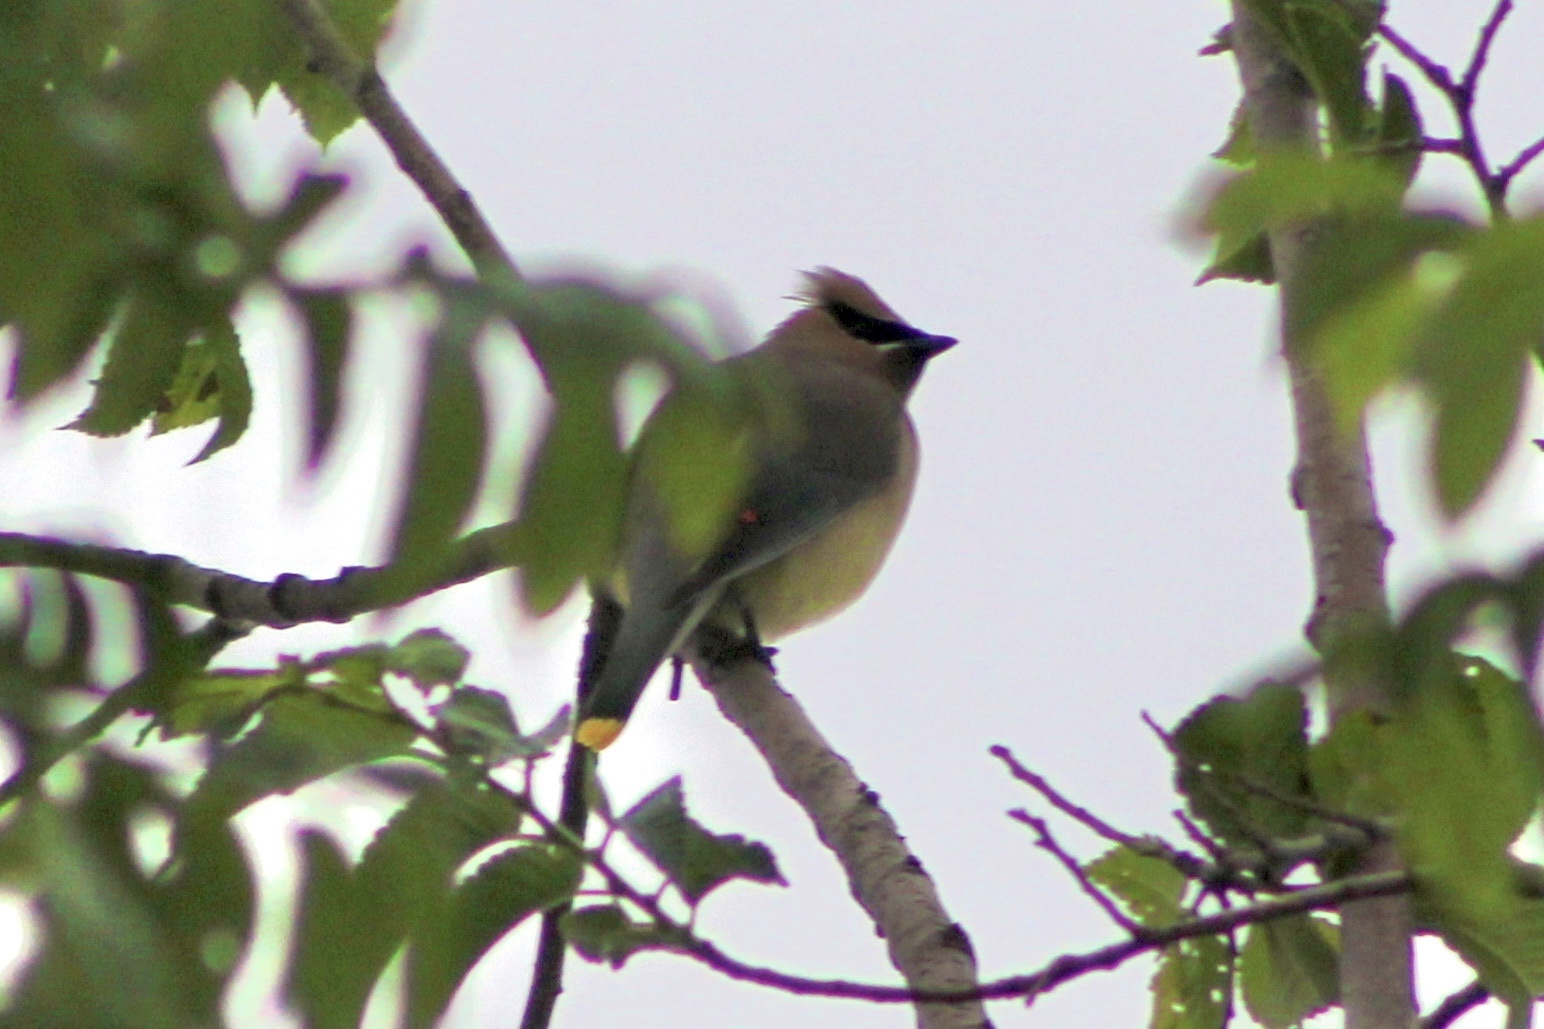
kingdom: Animalia
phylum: Chordata
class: Aves
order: Passeriformes
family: Bombycillidae
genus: Bombycilla
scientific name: Bombycilla cedrorum
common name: Cedar waxwing
